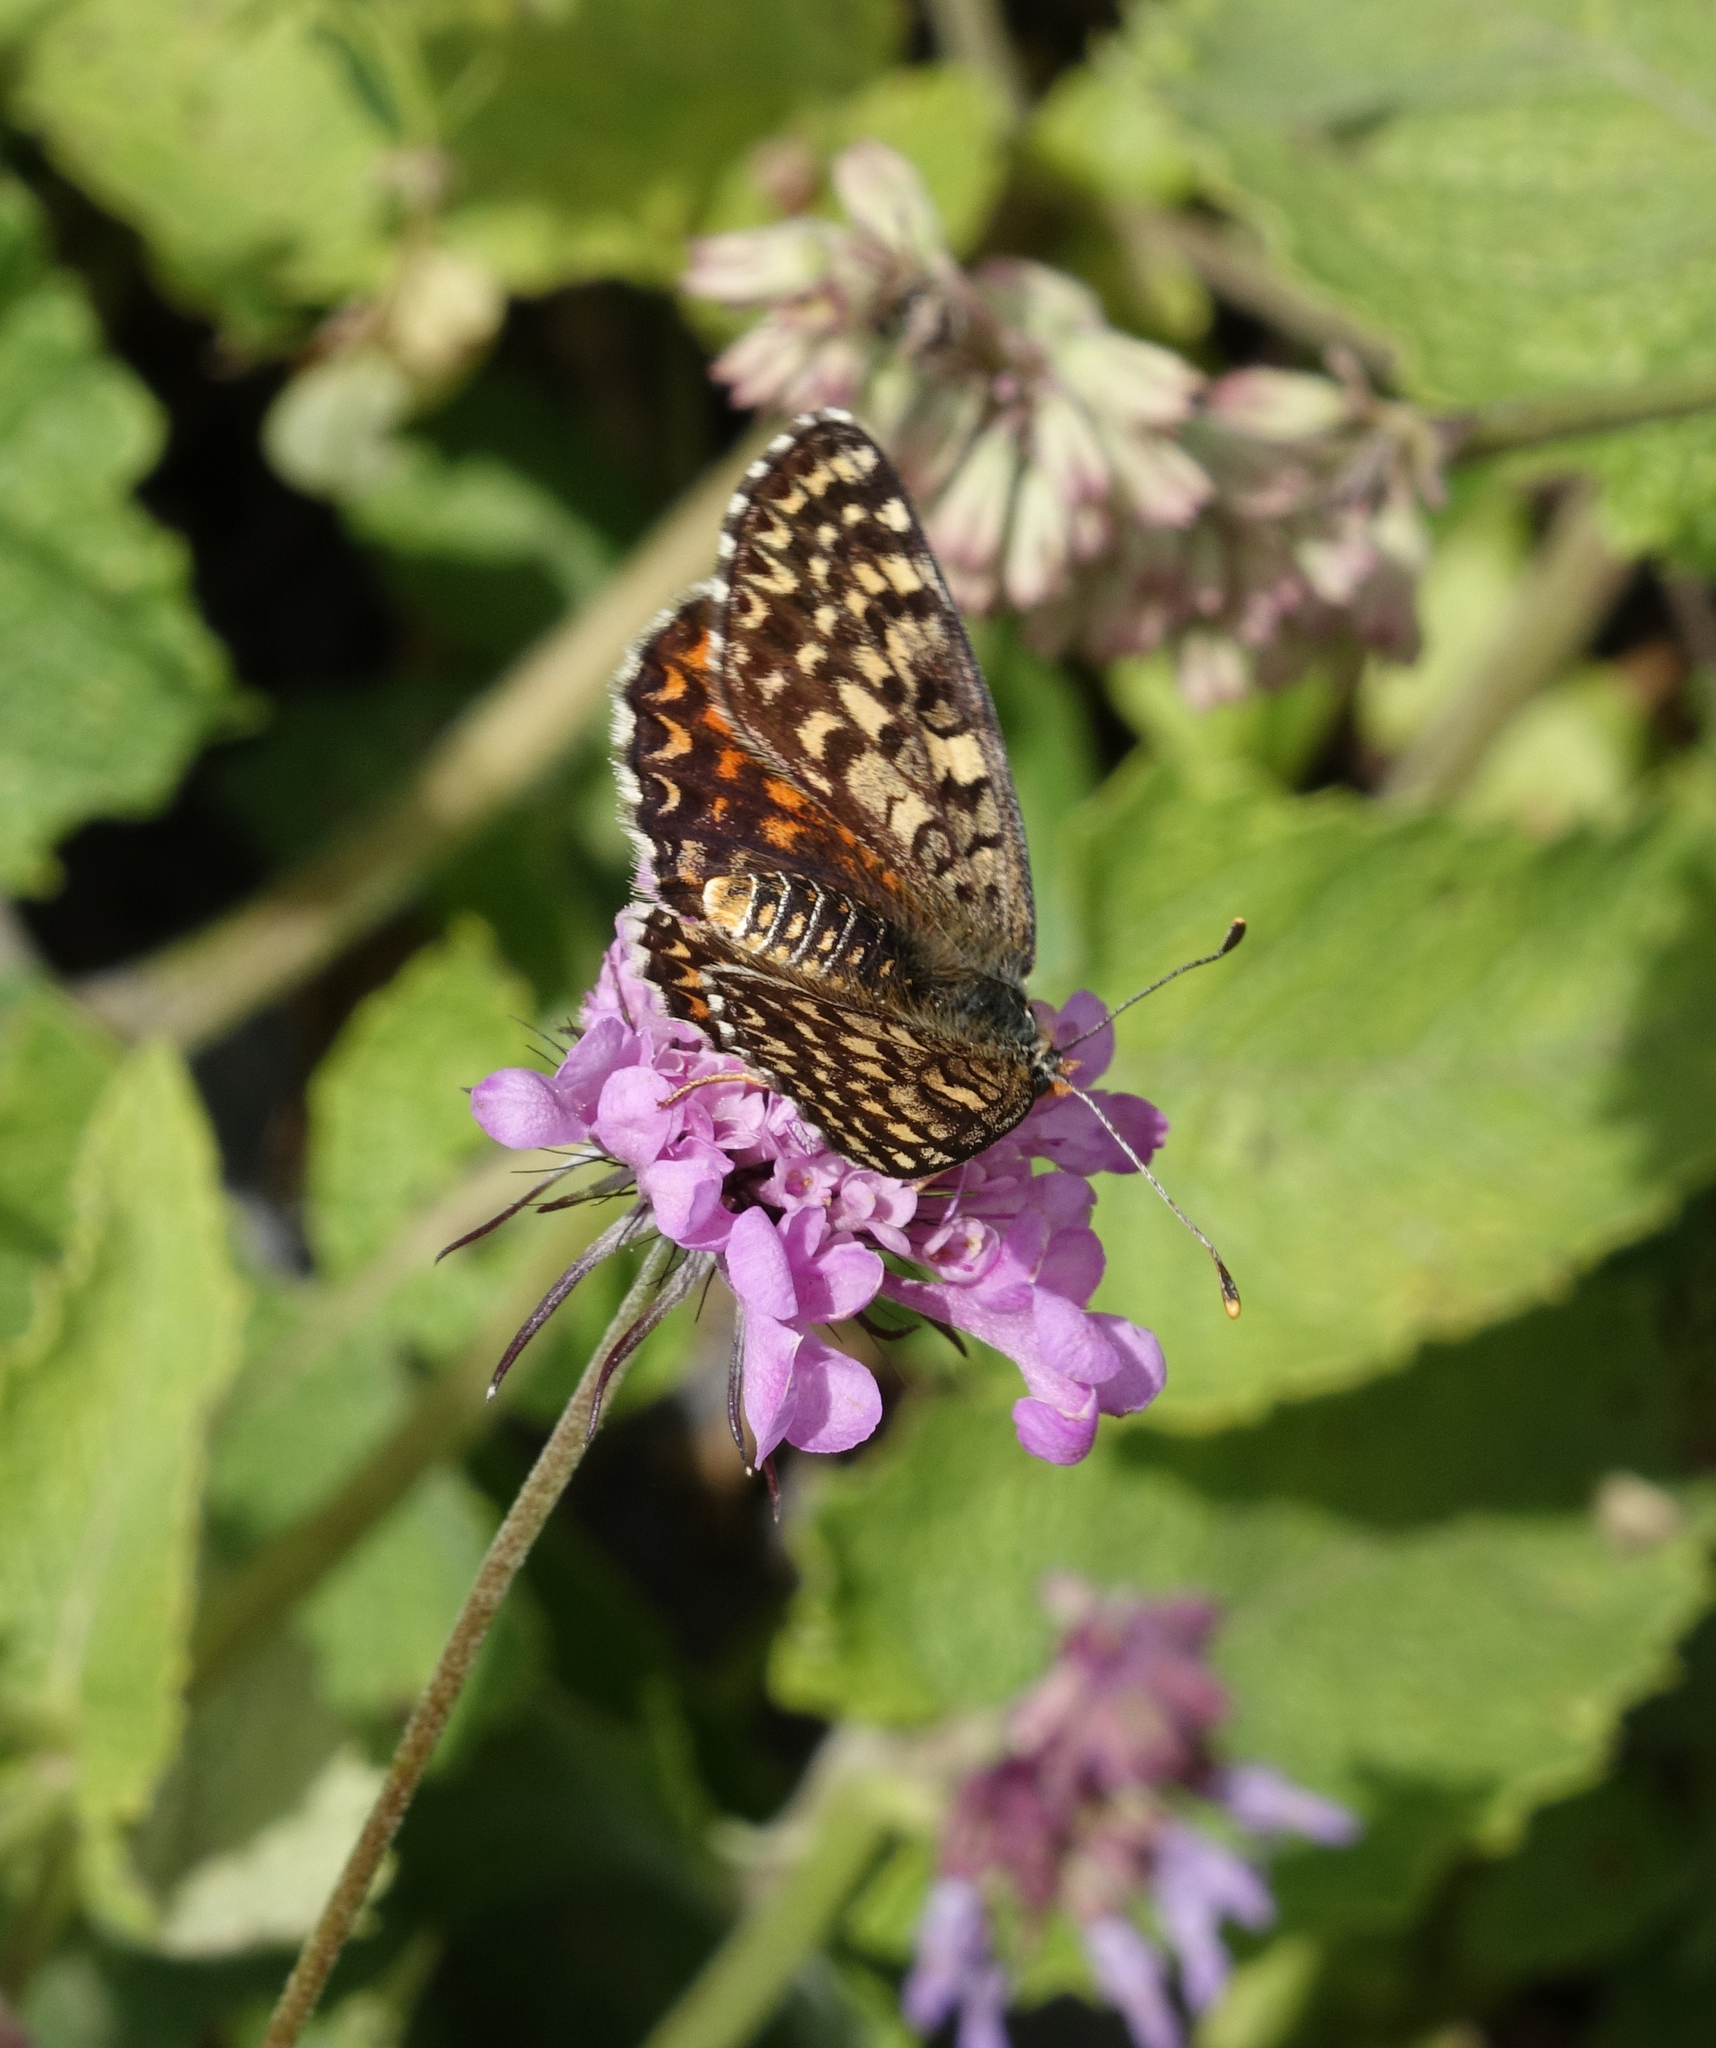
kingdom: Animalia
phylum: Arthropoda
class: Insecta
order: Lepidoptera
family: Nymphalidae
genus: Melitaea
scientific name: Melitaea cinxia
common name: Glanville fritillary
